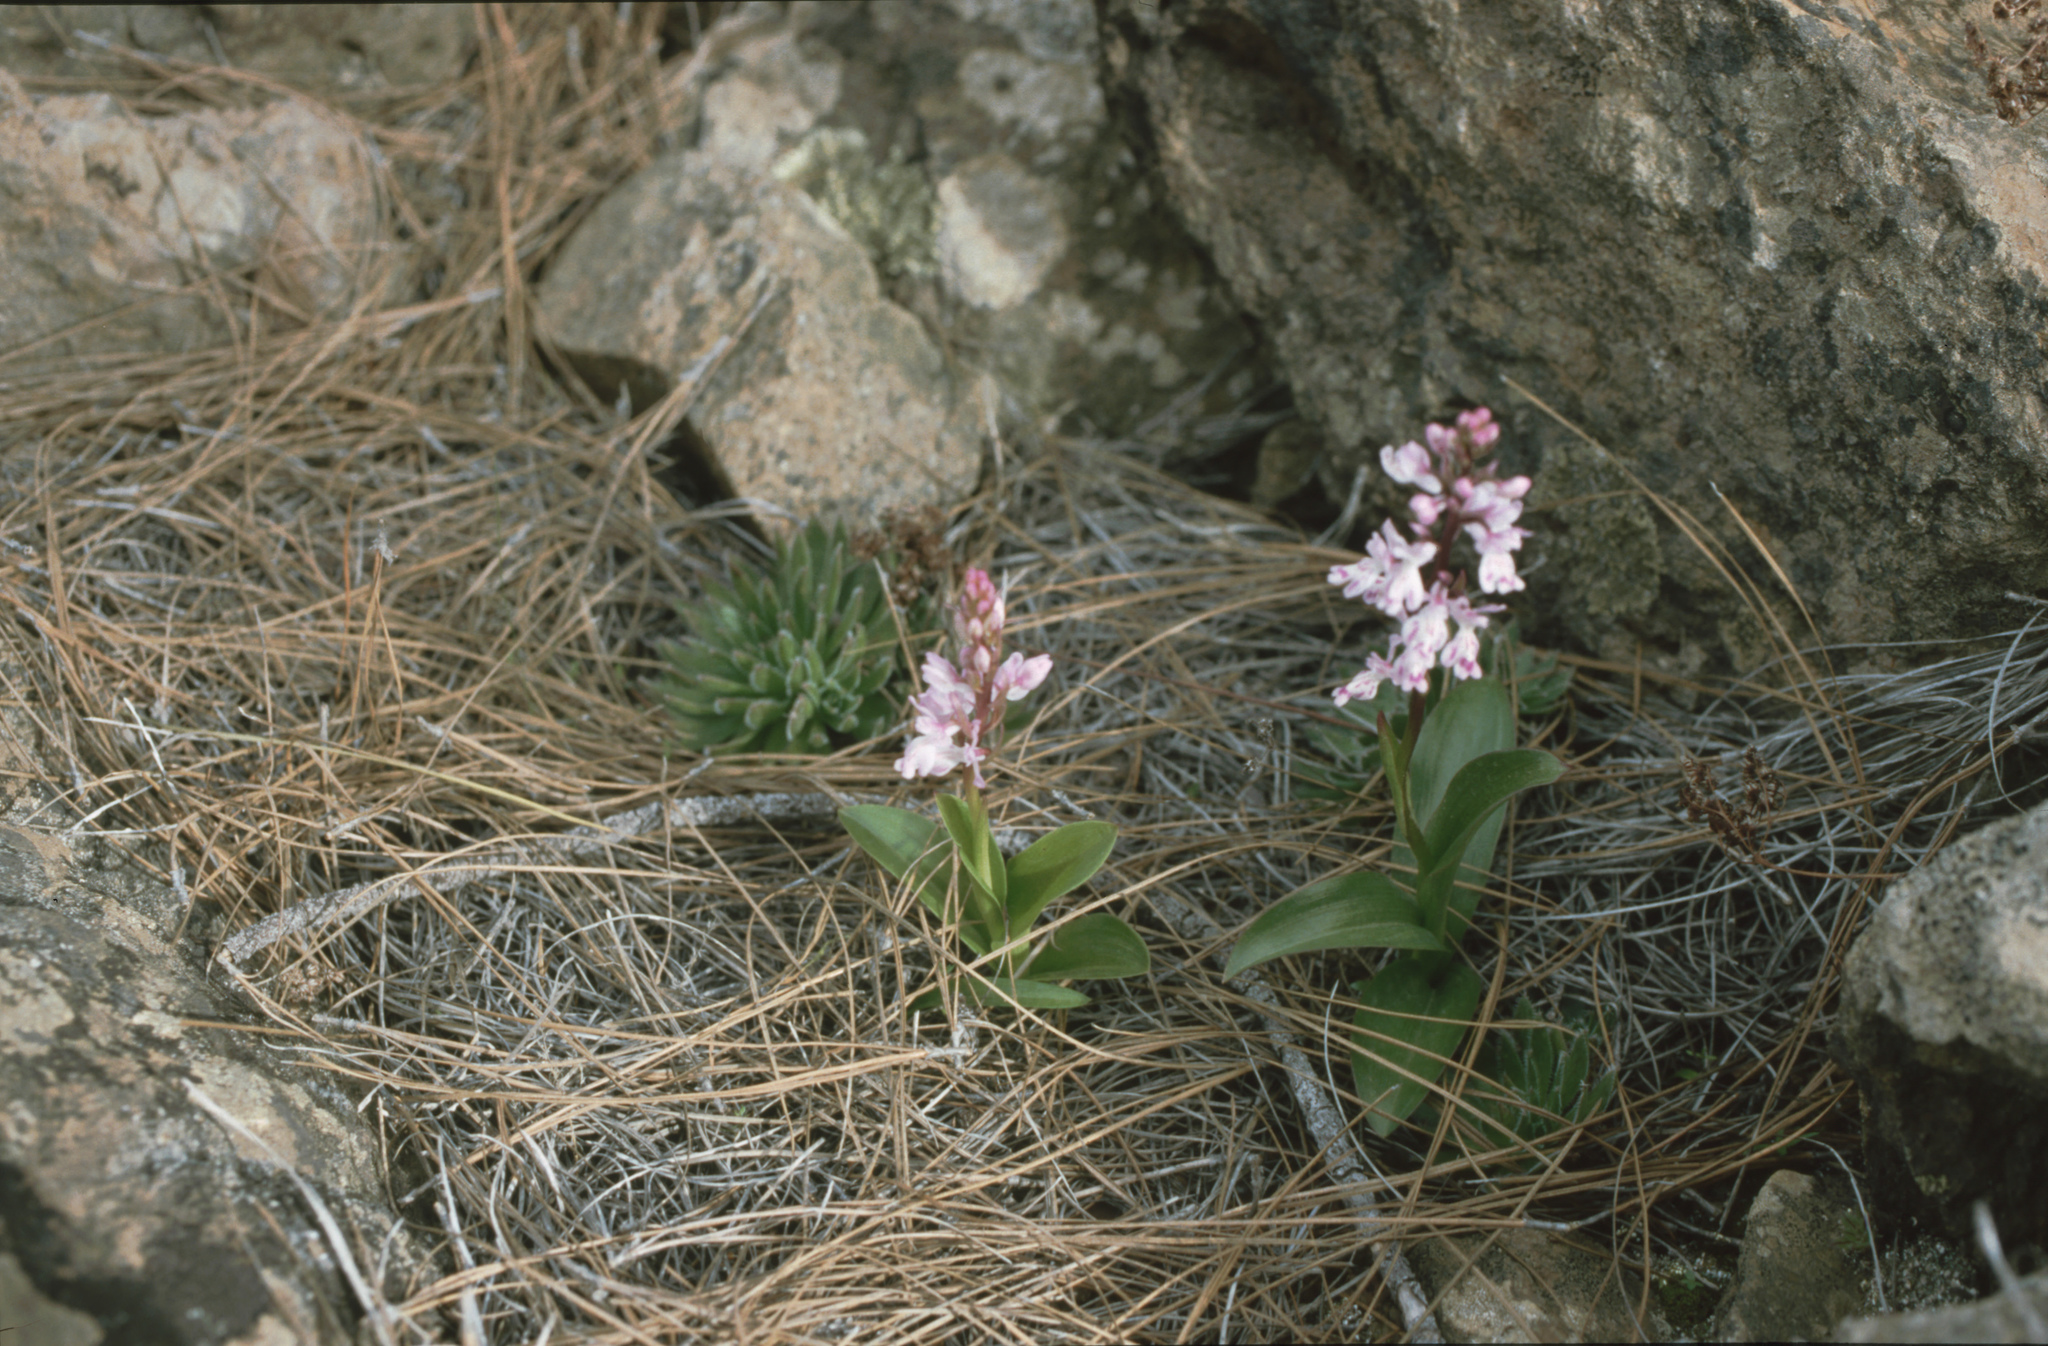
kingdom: Plantae
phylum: Tracheophyta
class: Liliopsida
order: Asparagales
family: Orchidaceae
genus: Orchis
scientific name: Orchis canariensis
